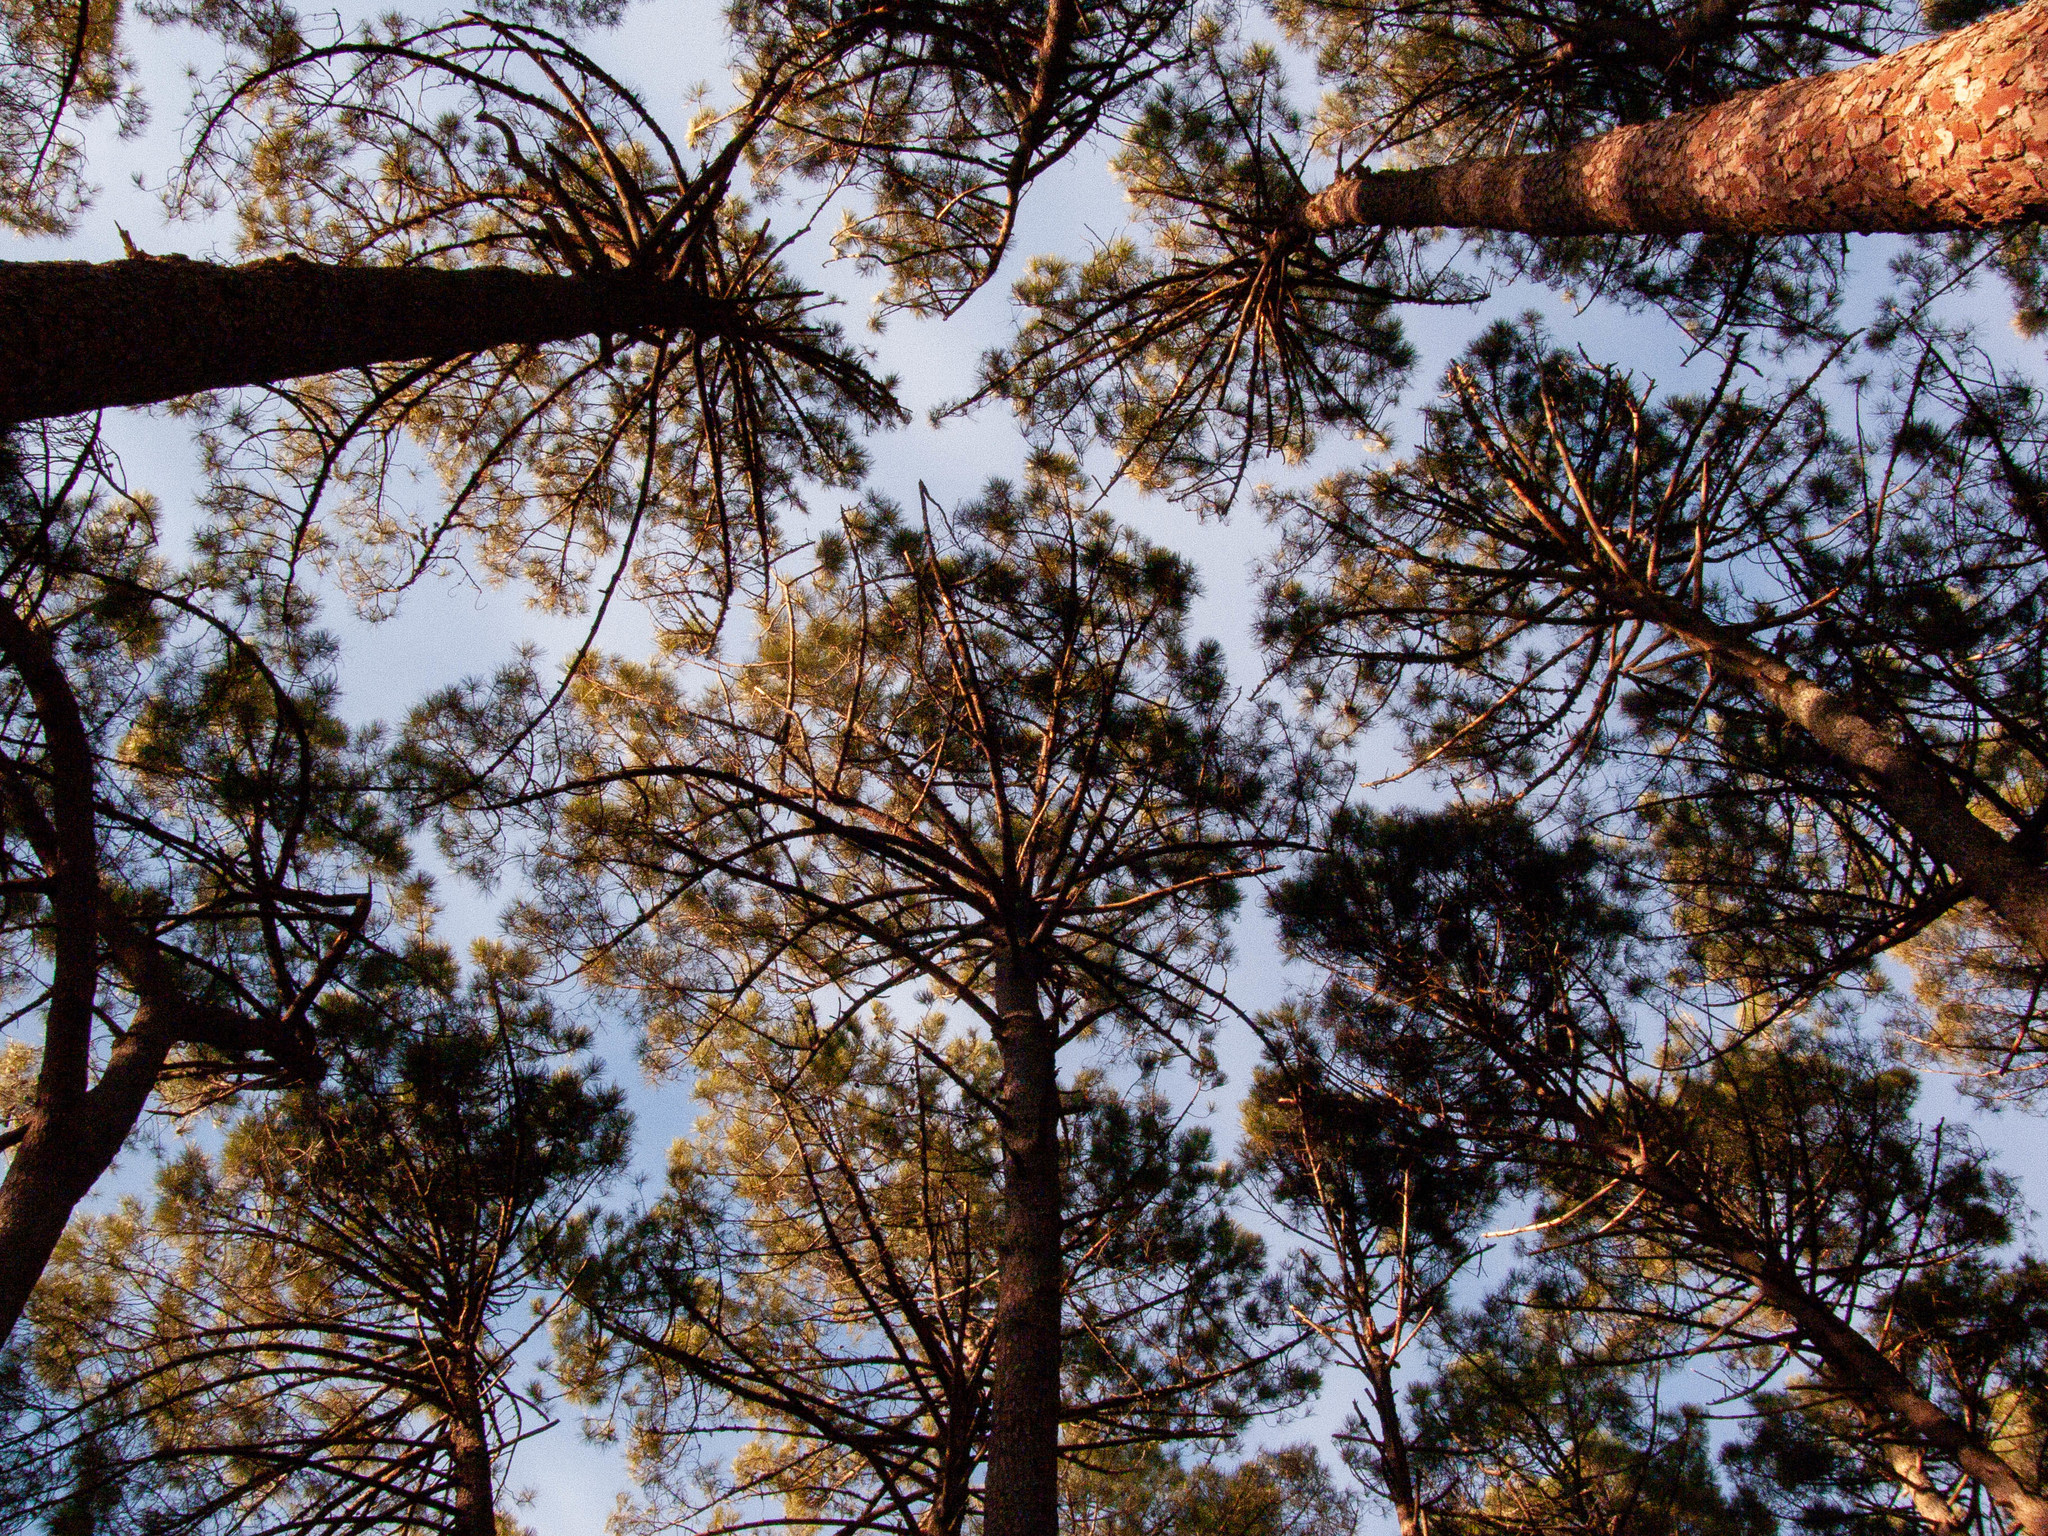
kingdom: Plantae
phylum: Tracheophyta
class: Pinopsida
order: Pinales
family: Pinaceae
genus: Pinus
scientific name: Pinus pinaster
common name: Maritime pine
